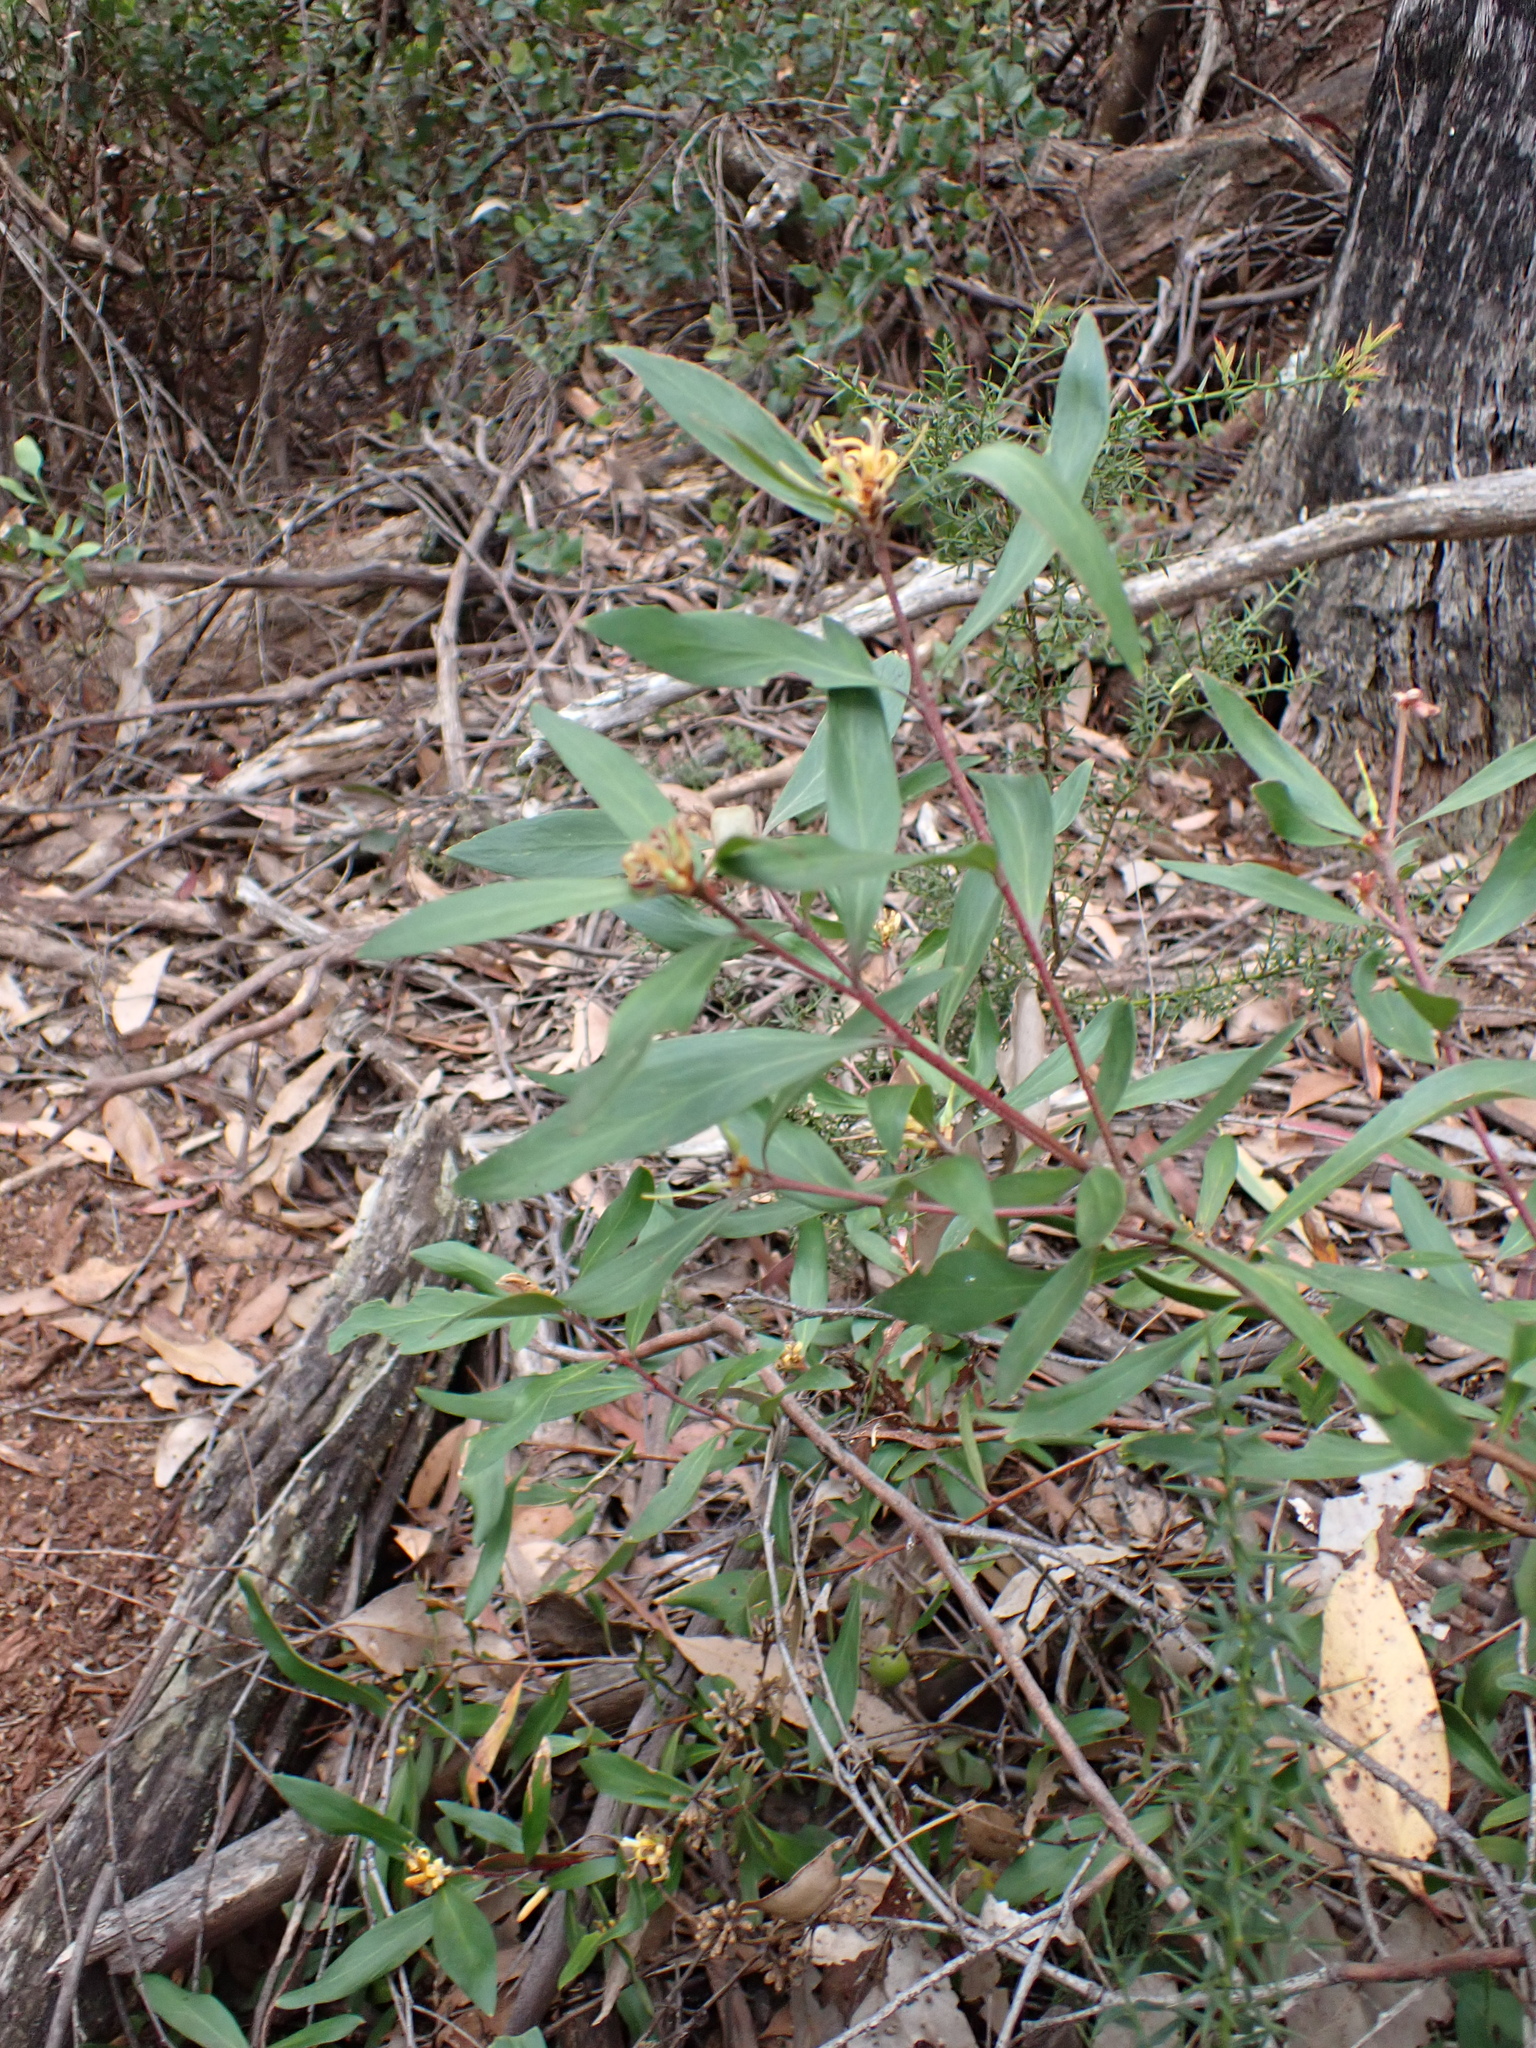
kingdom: Plantae
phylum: Tracheophyta
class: Magnoliopsida
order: Proteales
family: Proteaceae
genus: Persoonia
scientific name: Persoonia confertifolia
